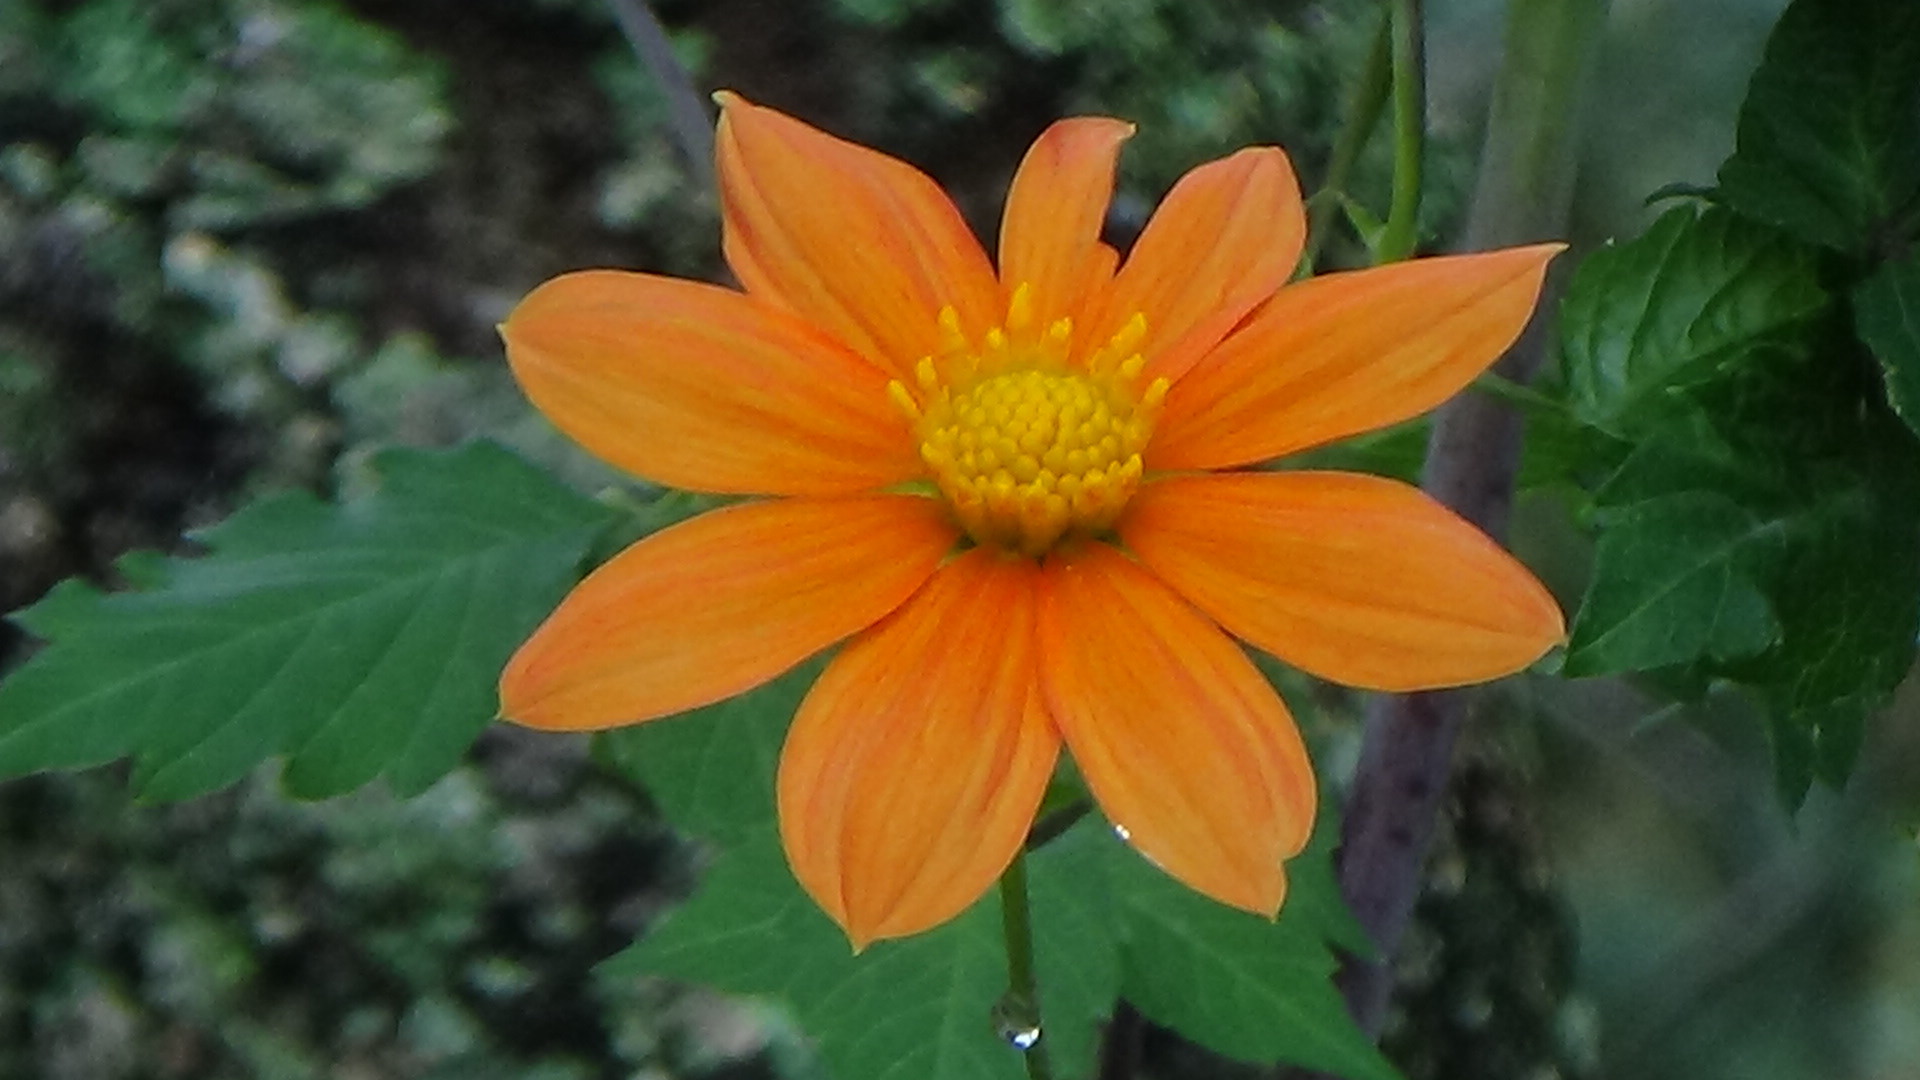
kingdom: Plantae
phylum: Tracheophyta
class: Magnoliopsida
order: Asterales
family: Asteraceae
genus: Dahlia
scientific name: Dahlia coccinea
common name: Red dahlia
